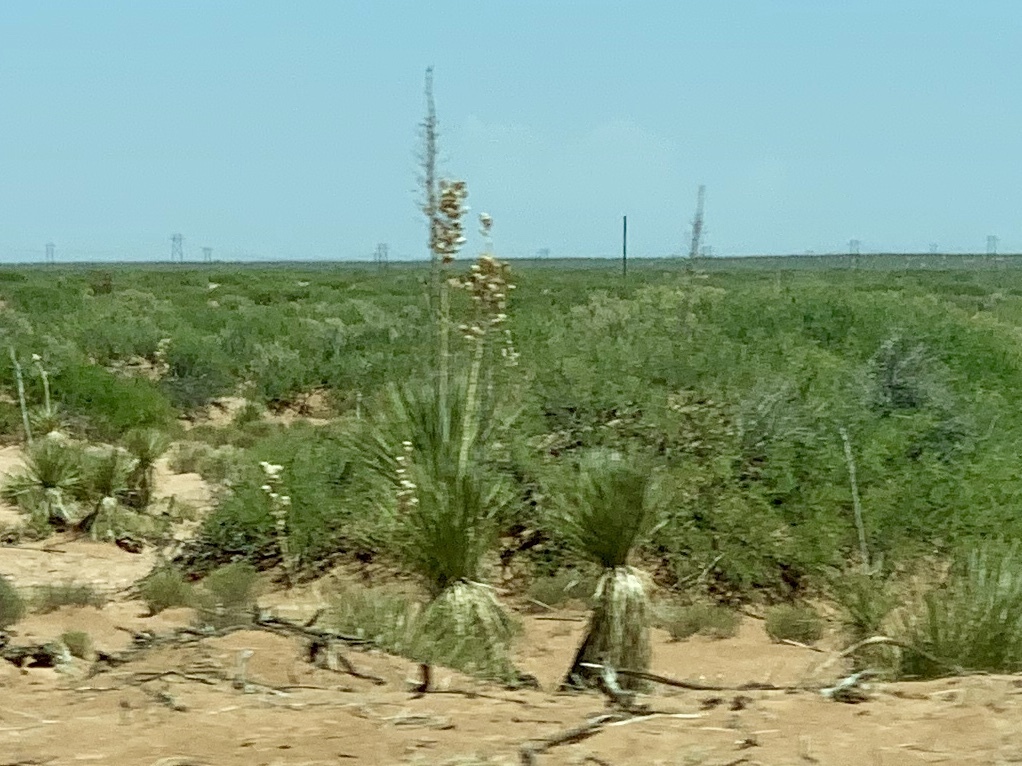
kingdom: Plantae
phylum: Tracheophyta
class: Liliopsida
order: Asparagales
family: Asparagaceae
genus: Yucca
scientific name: Yucca elata
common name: Palmella
